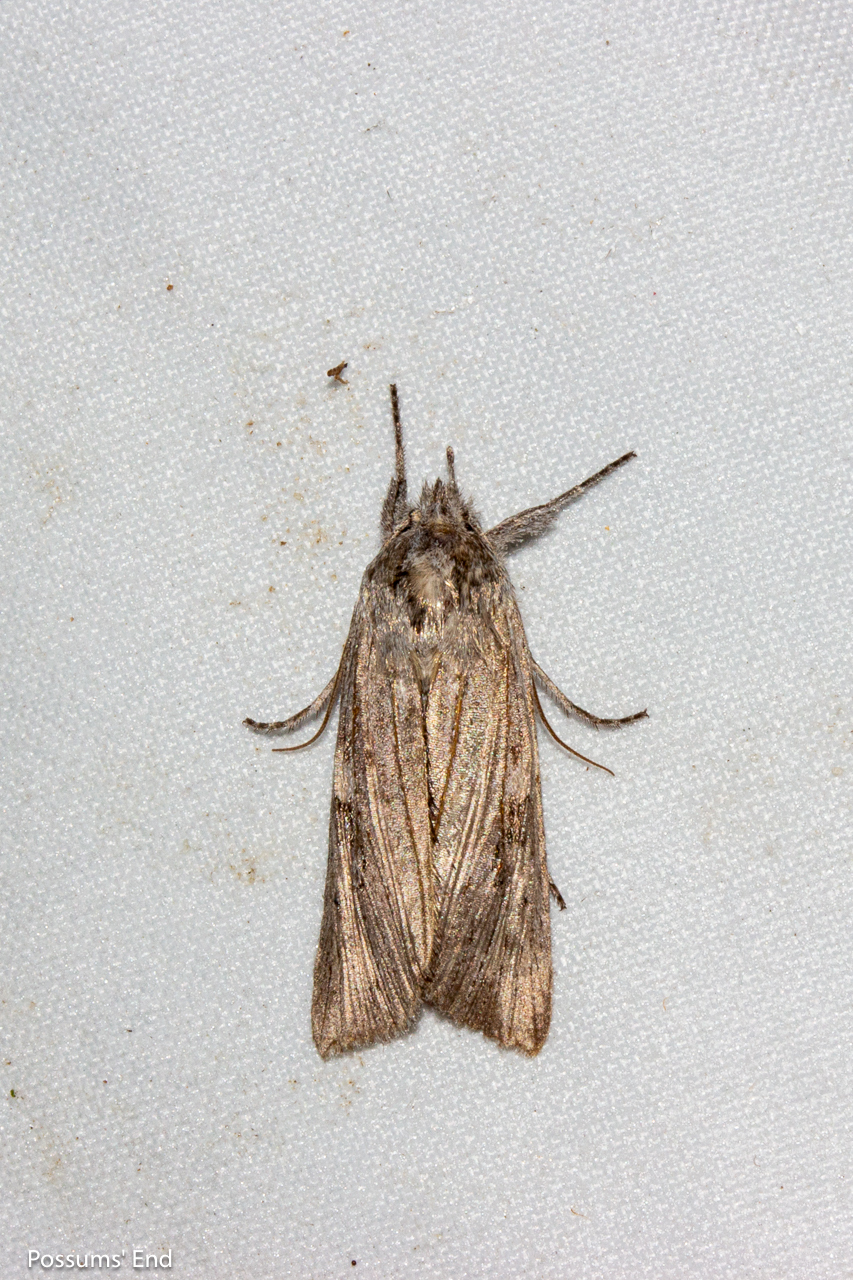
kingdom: Animalia
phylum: Arthropoda
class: Insecta
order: Lepidoptera
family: Noctuidae
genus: Physetica
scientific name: Physetica phricias
